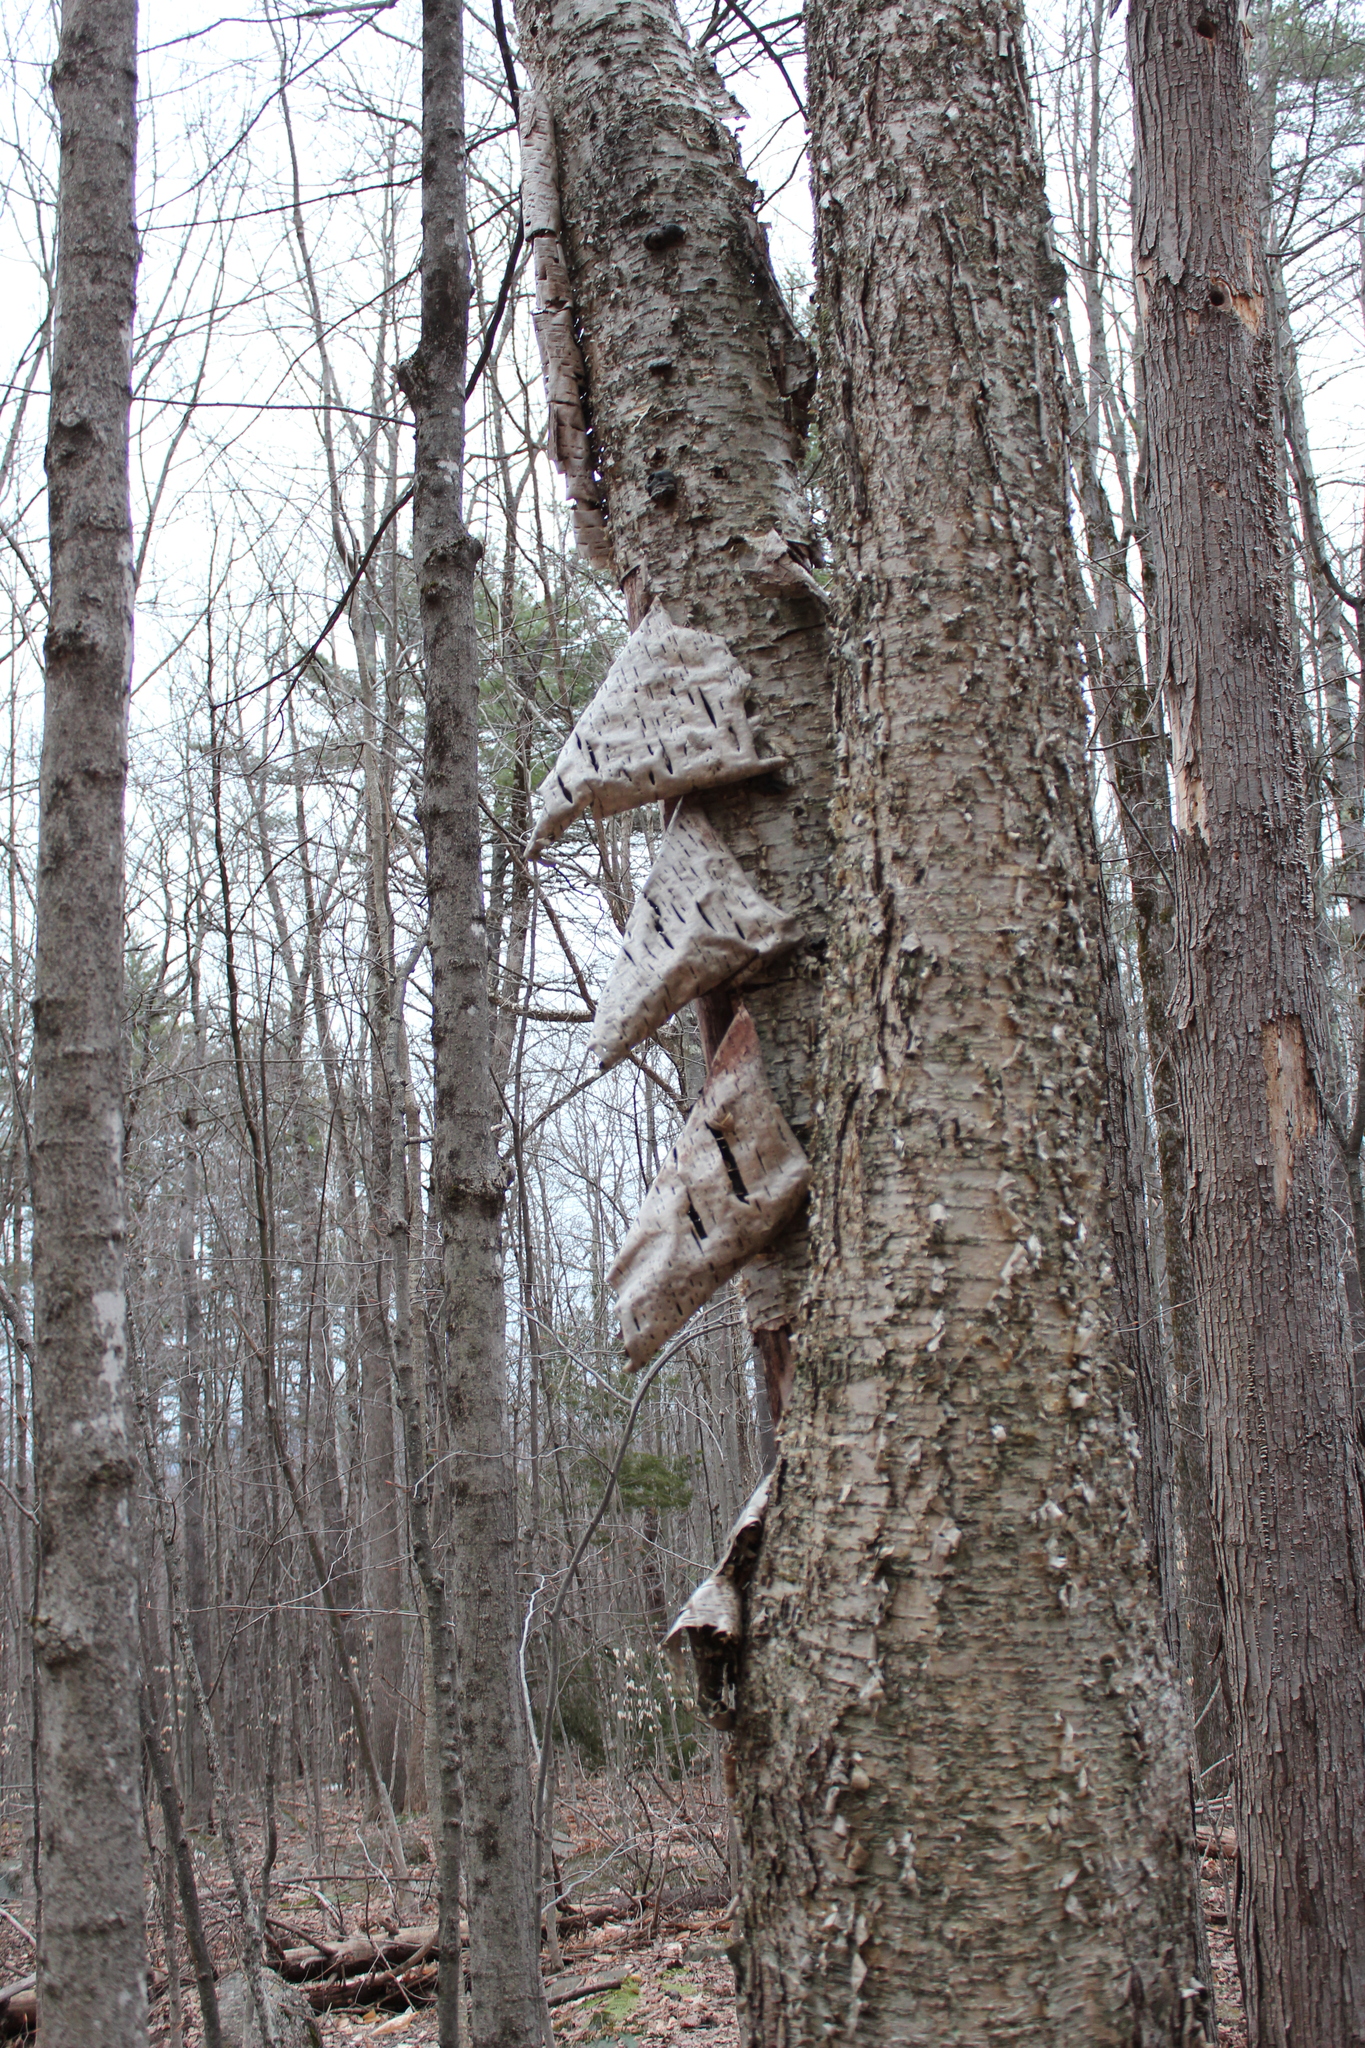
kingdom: Plantae
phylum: Tracheophyta
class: Magnoliopsida
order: Fagales
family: Betulaceae
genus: Betula
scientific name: Betula alleghaniensis
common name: Yellow birch
